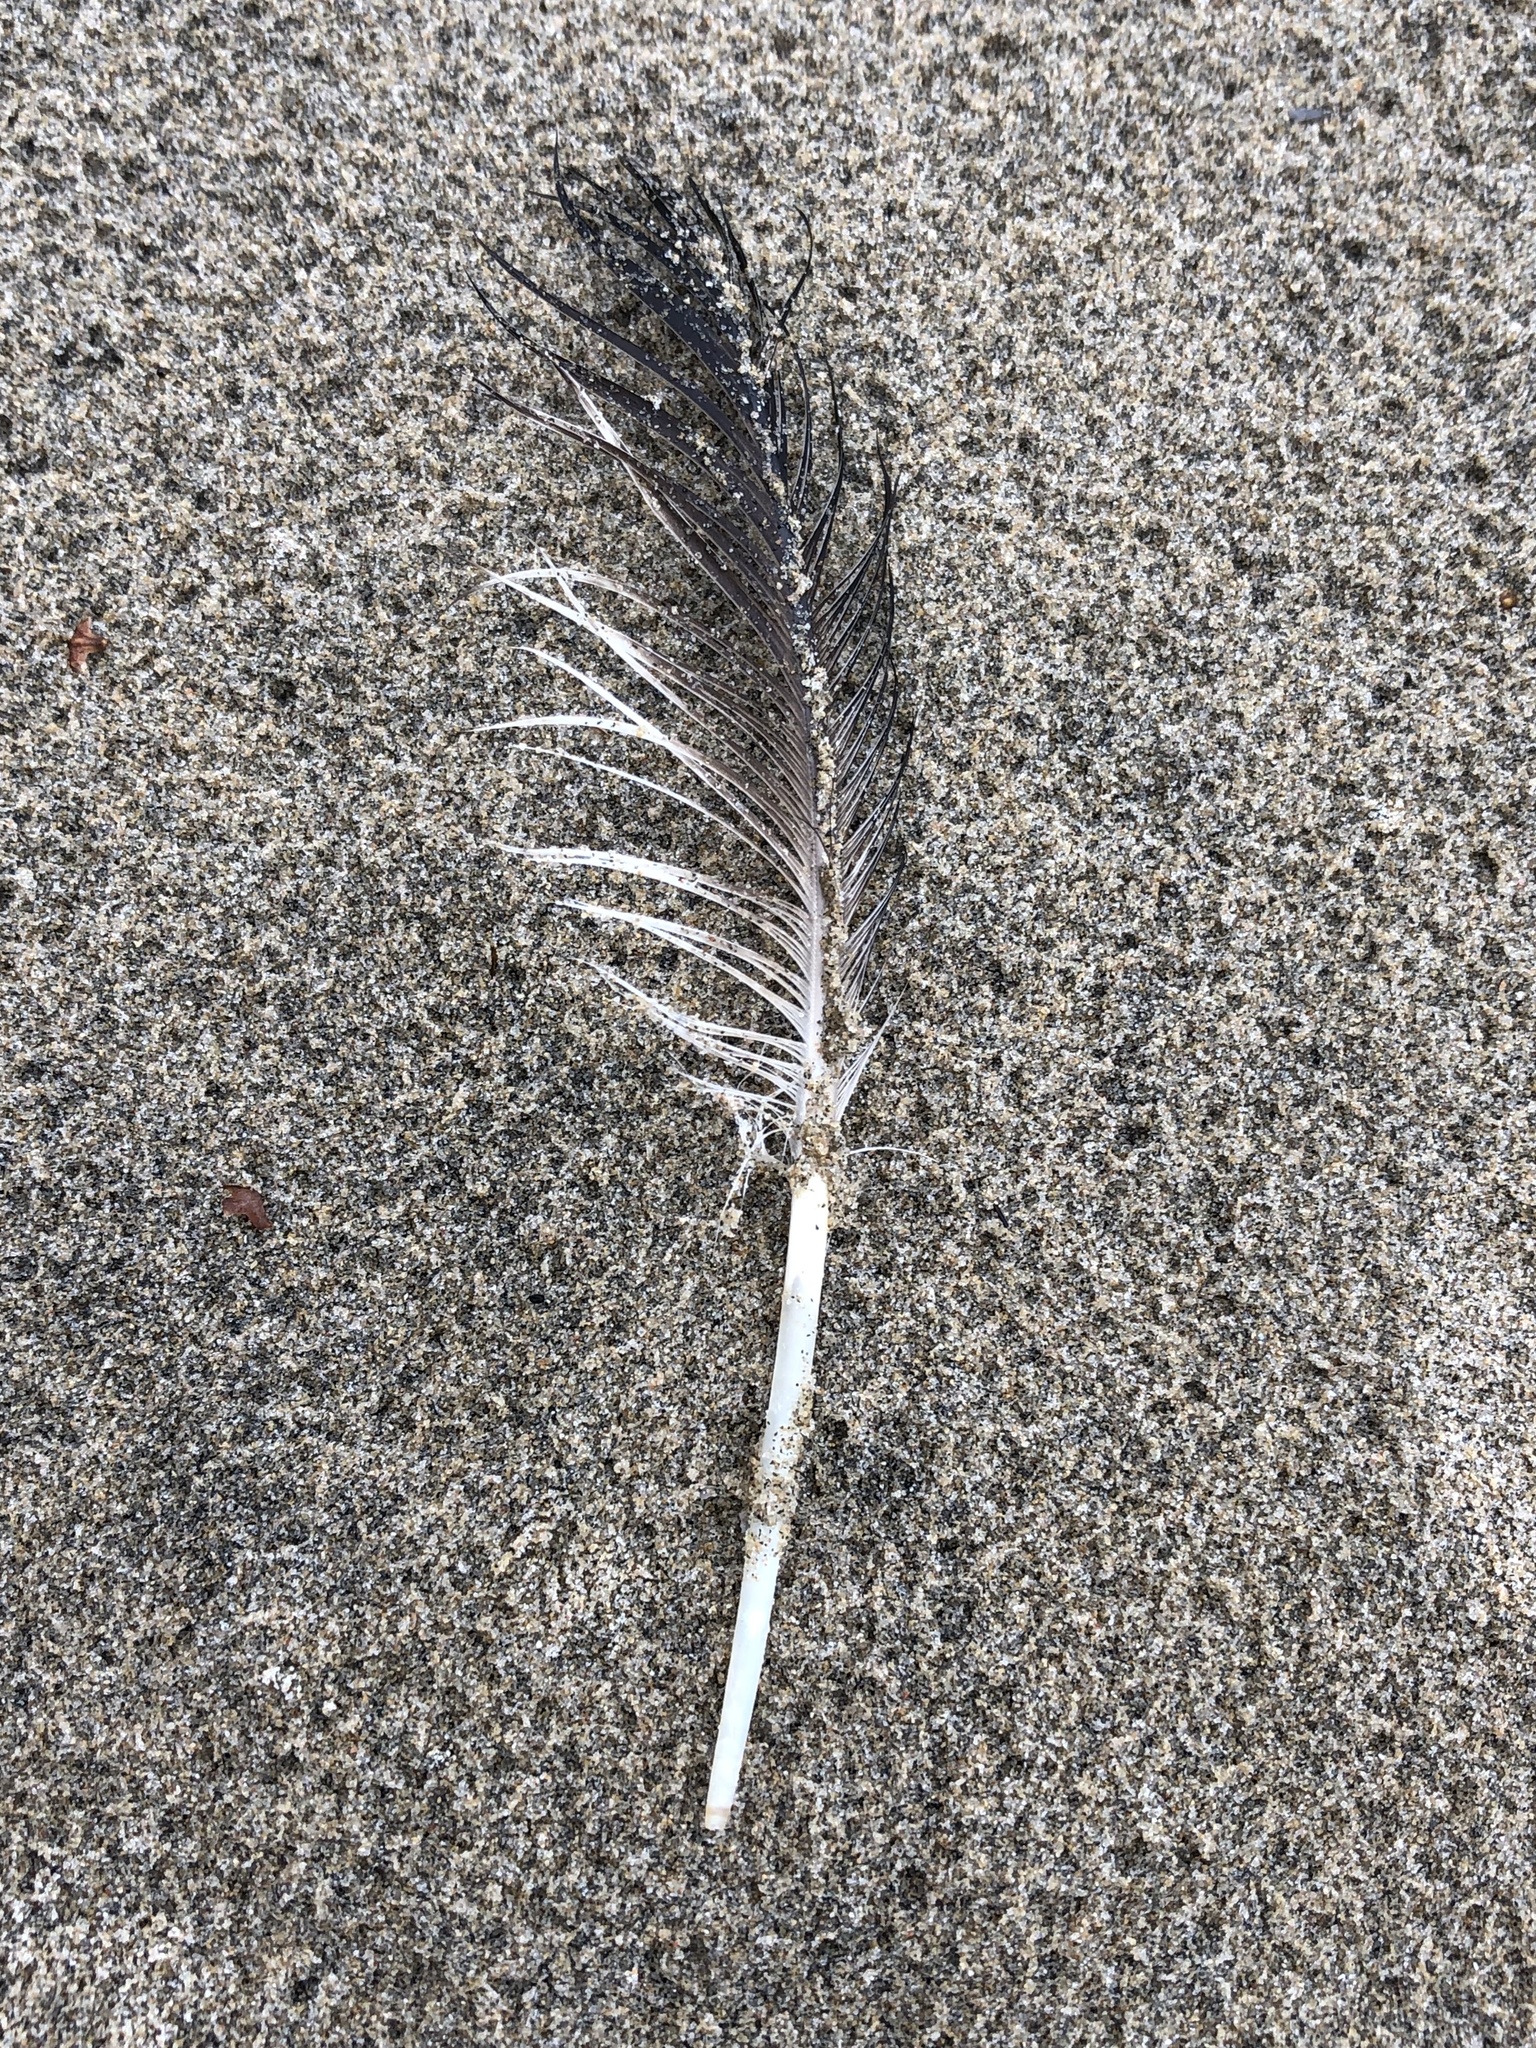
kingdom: Animalia
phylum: Chordata
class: Aves
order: Gaviiformes
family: Gaviidae
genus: Gavia
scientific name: Gavia immer
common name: Common loon
